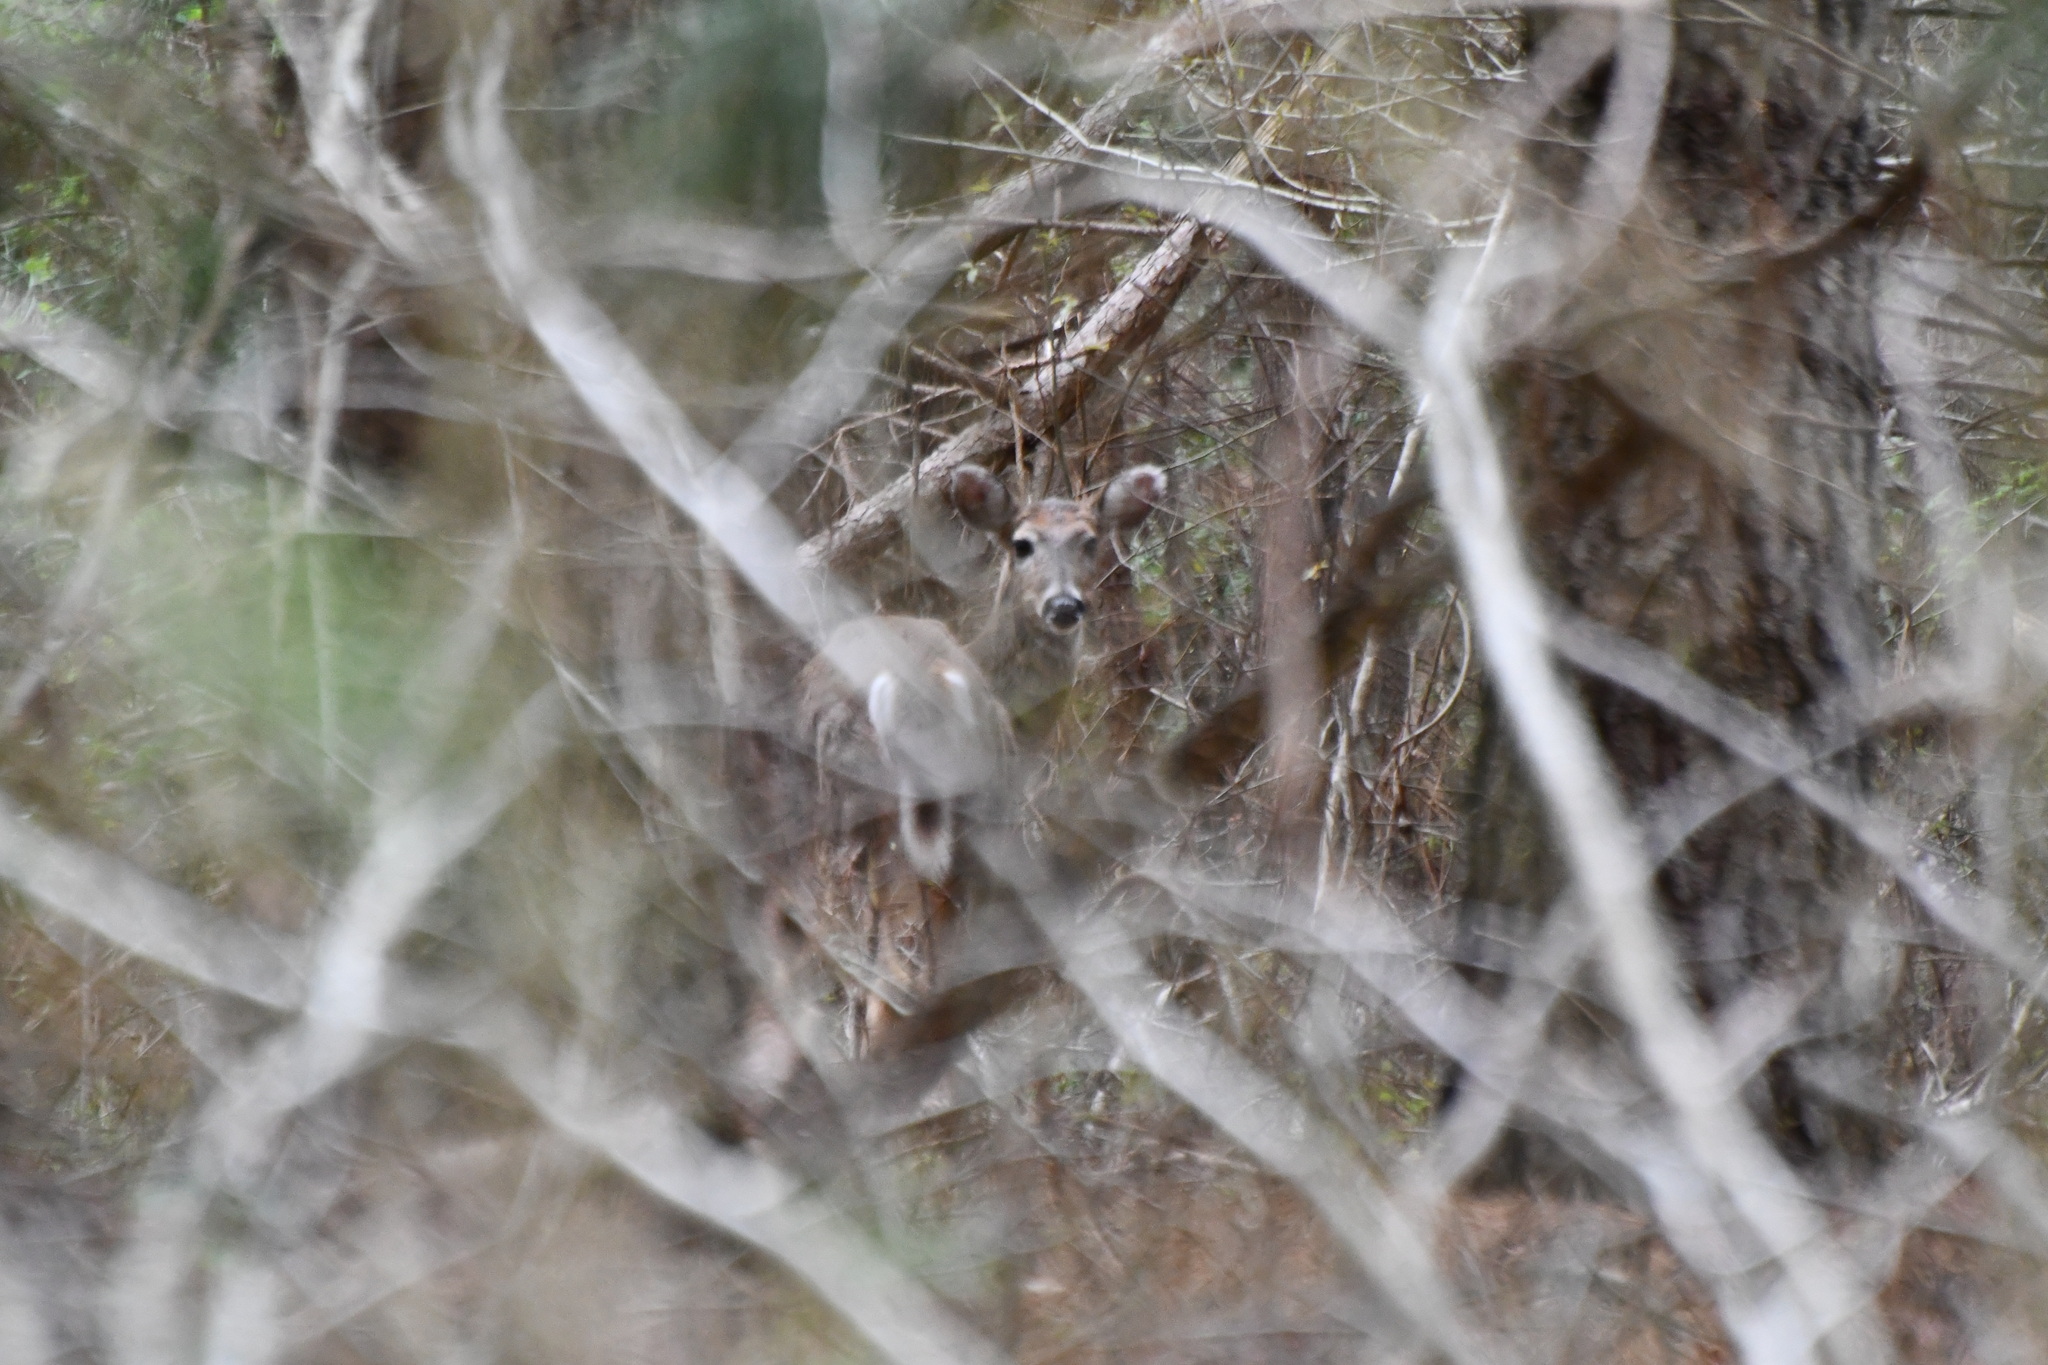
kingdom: Animalia
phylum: Chordata
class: Mammalia
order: Artiodactyla
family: Cervidae
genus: Odocoileus
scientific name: Odocoileus virginianus
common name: White-tailed deer
